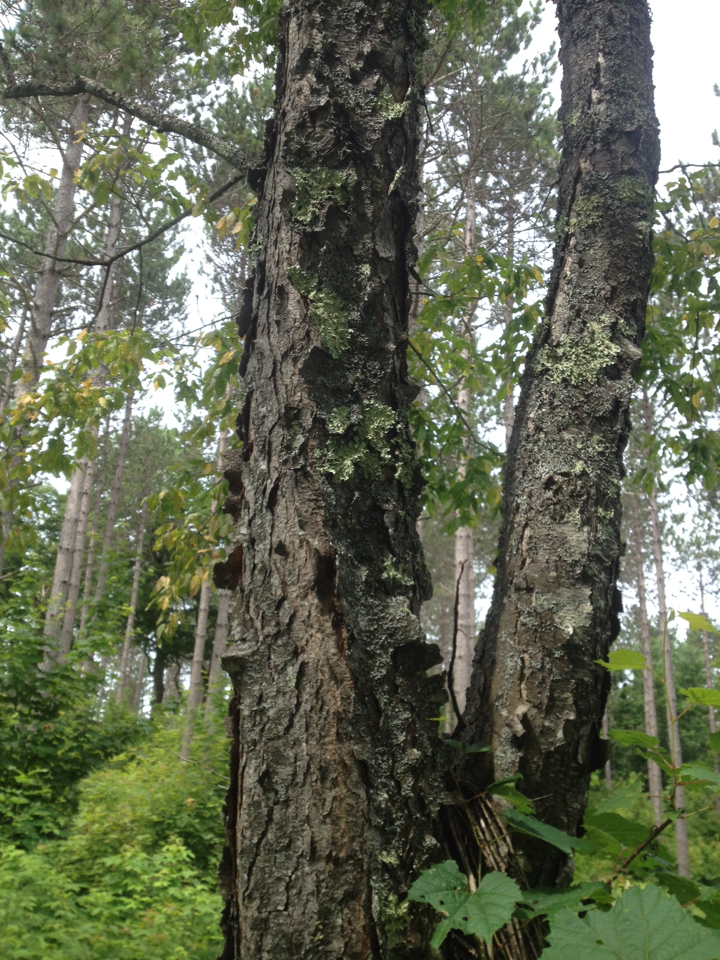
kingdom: Plantae
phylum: Tracheophyta
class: Magnoliopsida
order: Rosales
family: Rosaceae
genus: Prunus
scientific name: Prunus serotina
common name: Black cherry
